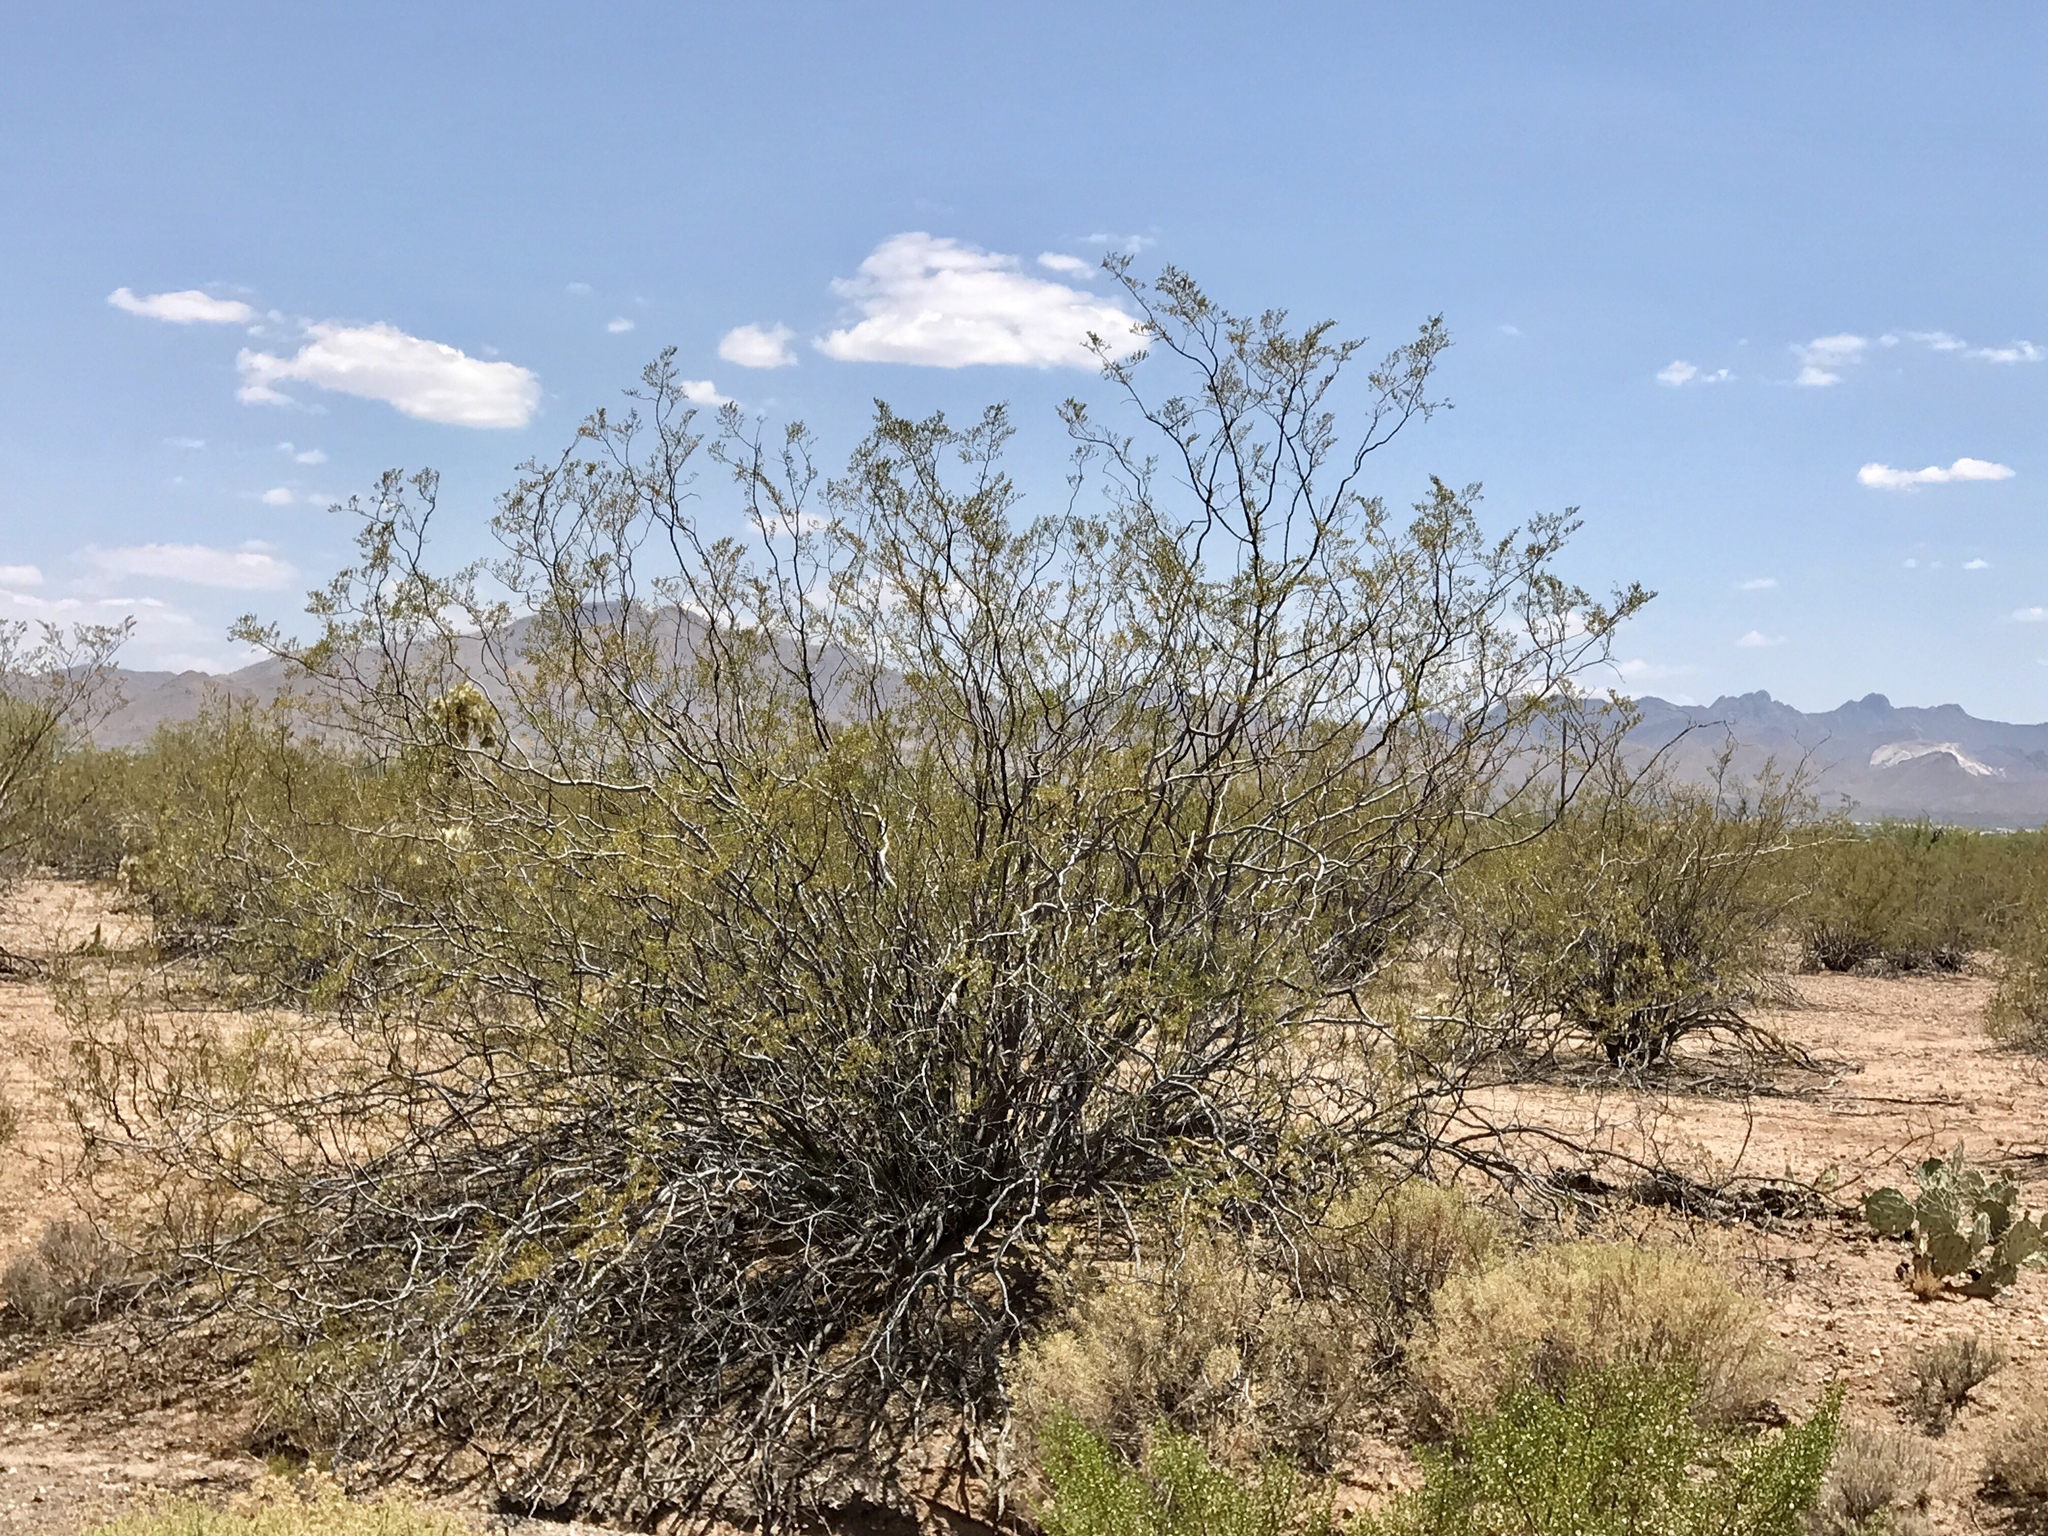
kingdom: Plantae
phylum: Tracheophyta
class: Magnoliopsida
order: Zygophyllales
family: Zygophyllaceae
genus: Larrea
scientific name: Larrea tridentata
